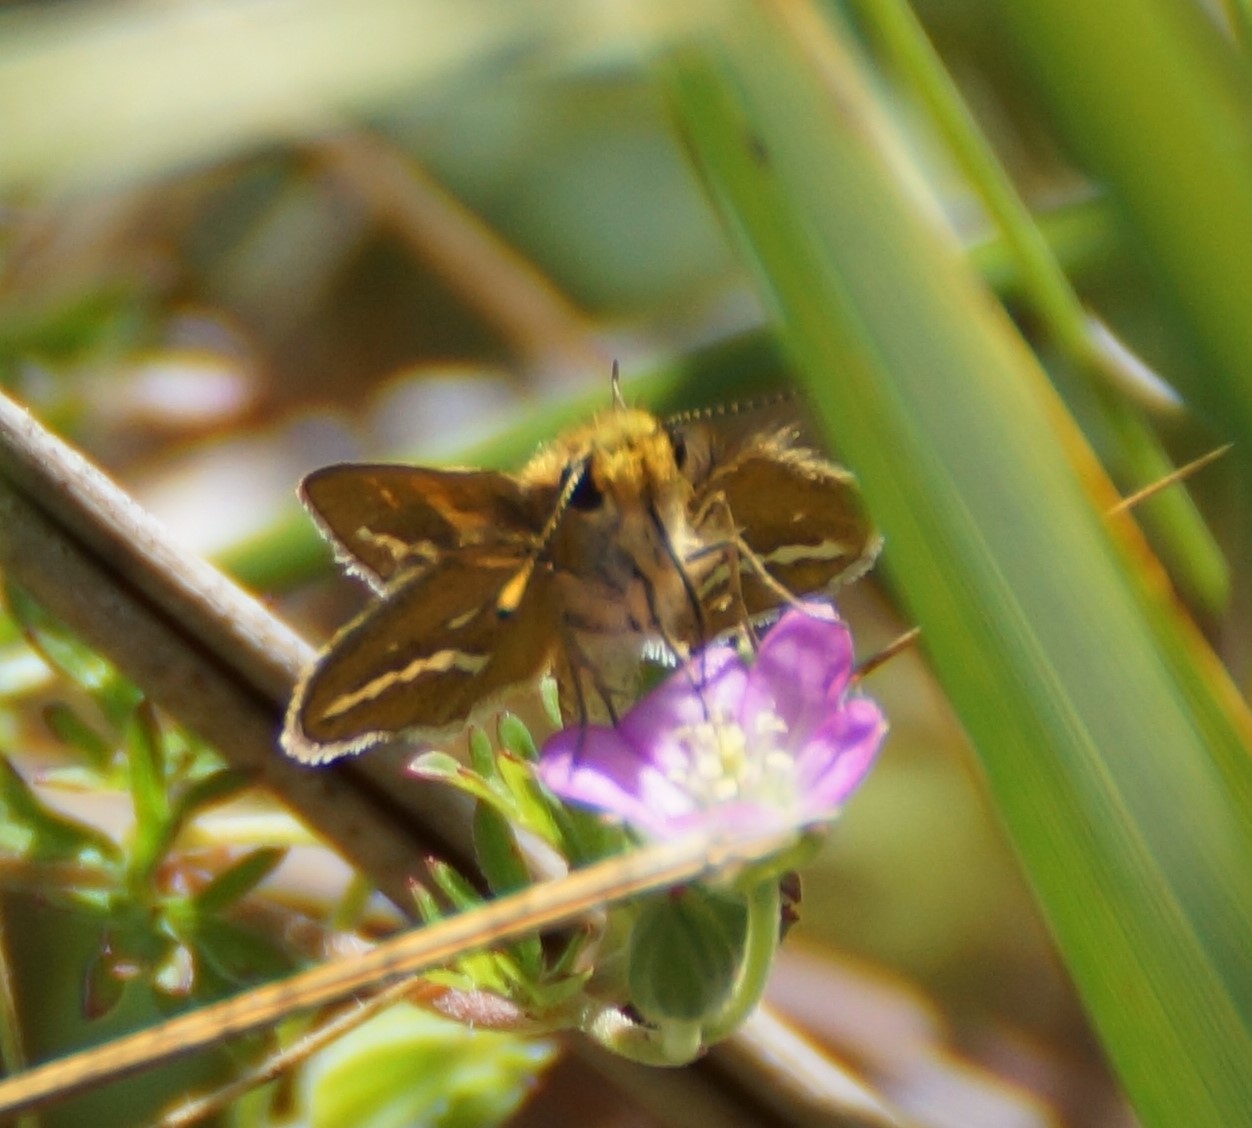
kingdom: Animalia
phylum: Arthropoda
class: Insecta
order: Lepidoptera
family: Hesperiidae
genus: Taractrocera
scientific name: Taractrocera papyria
